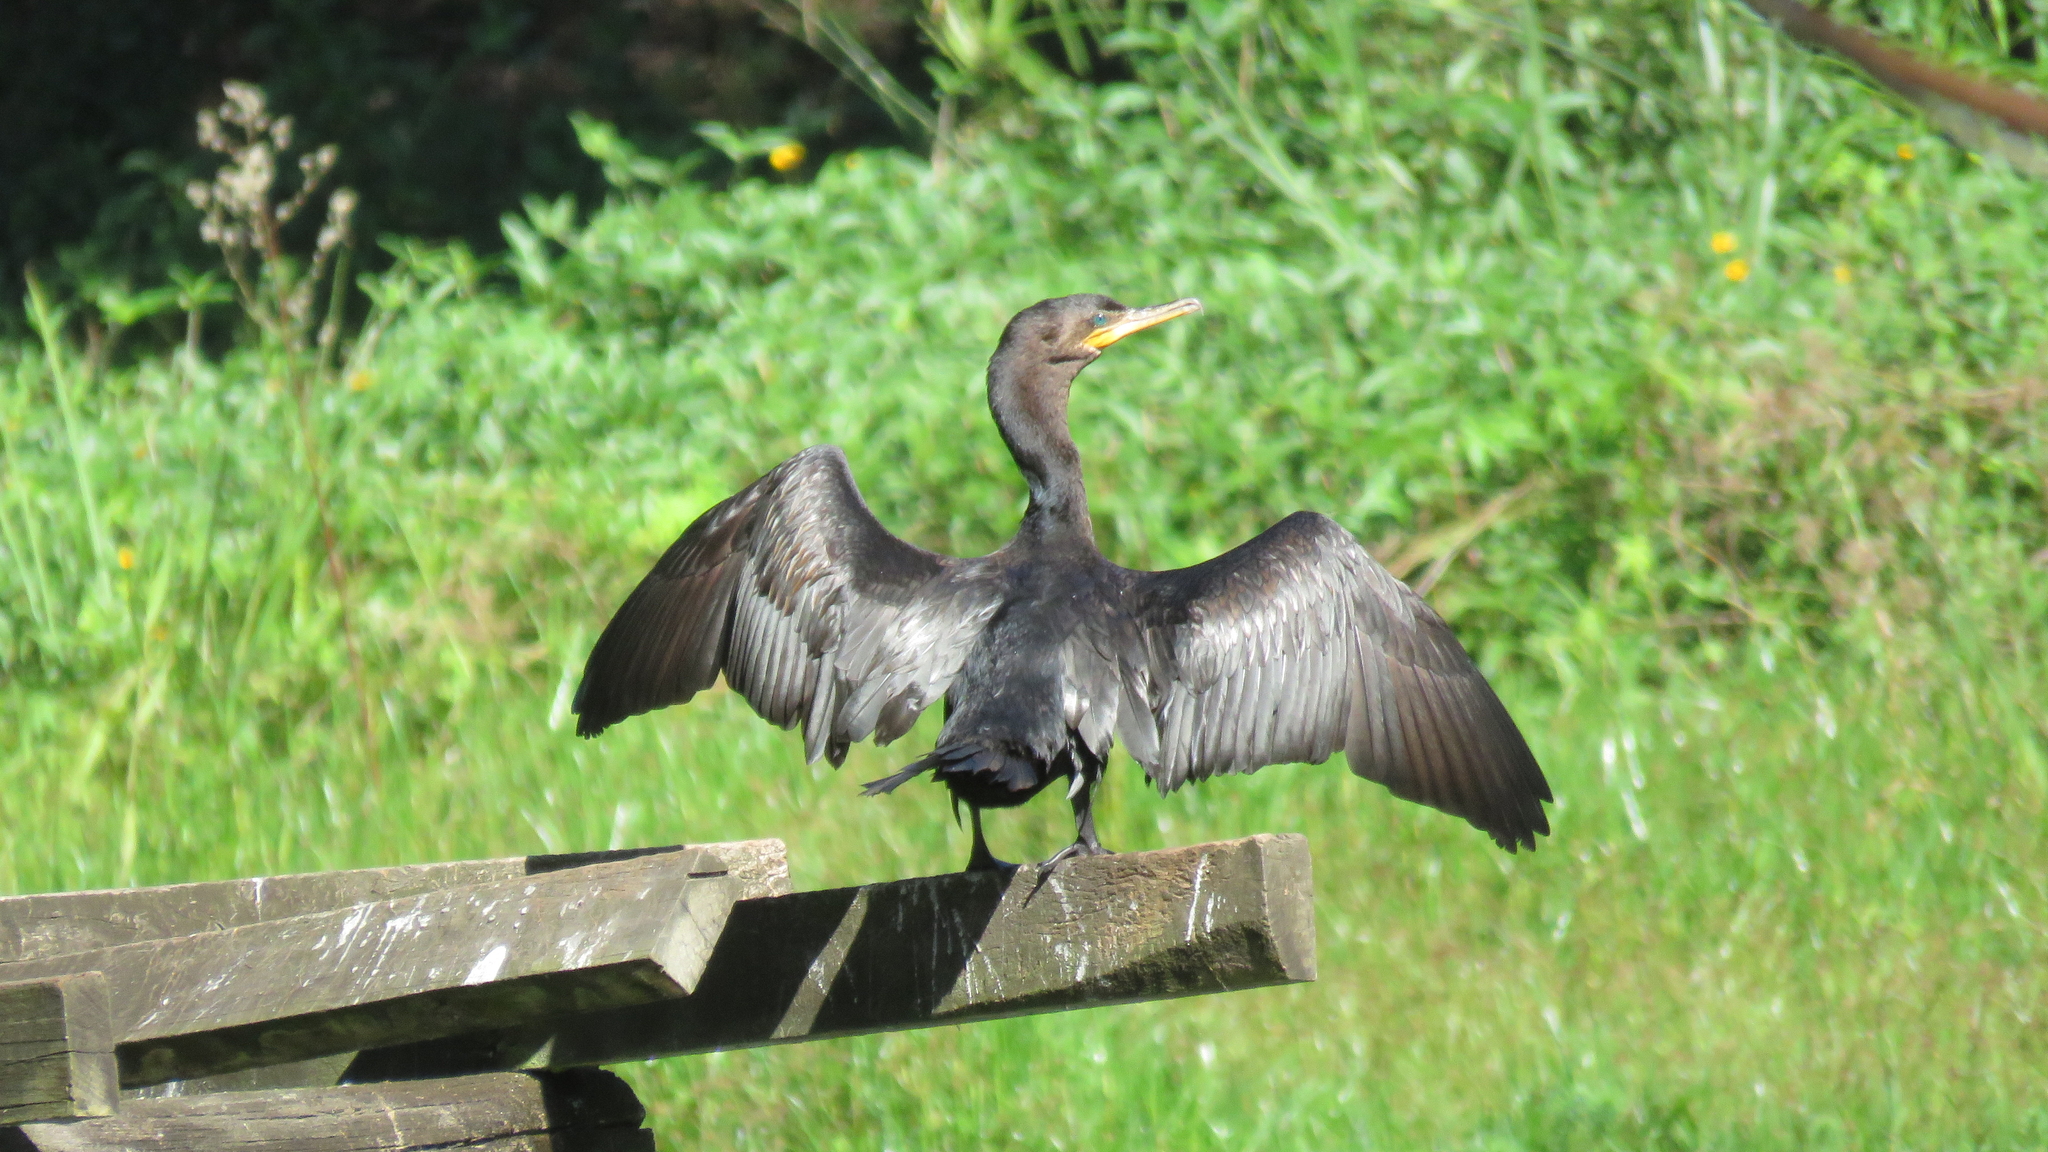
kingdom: Animalia
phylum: Chordata
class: Aves
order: Suliformes
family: Phalacrocoracidae
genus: Phalacrocorax
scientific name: Phalacrocorax brasilianus
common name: Neotropic cormorant
